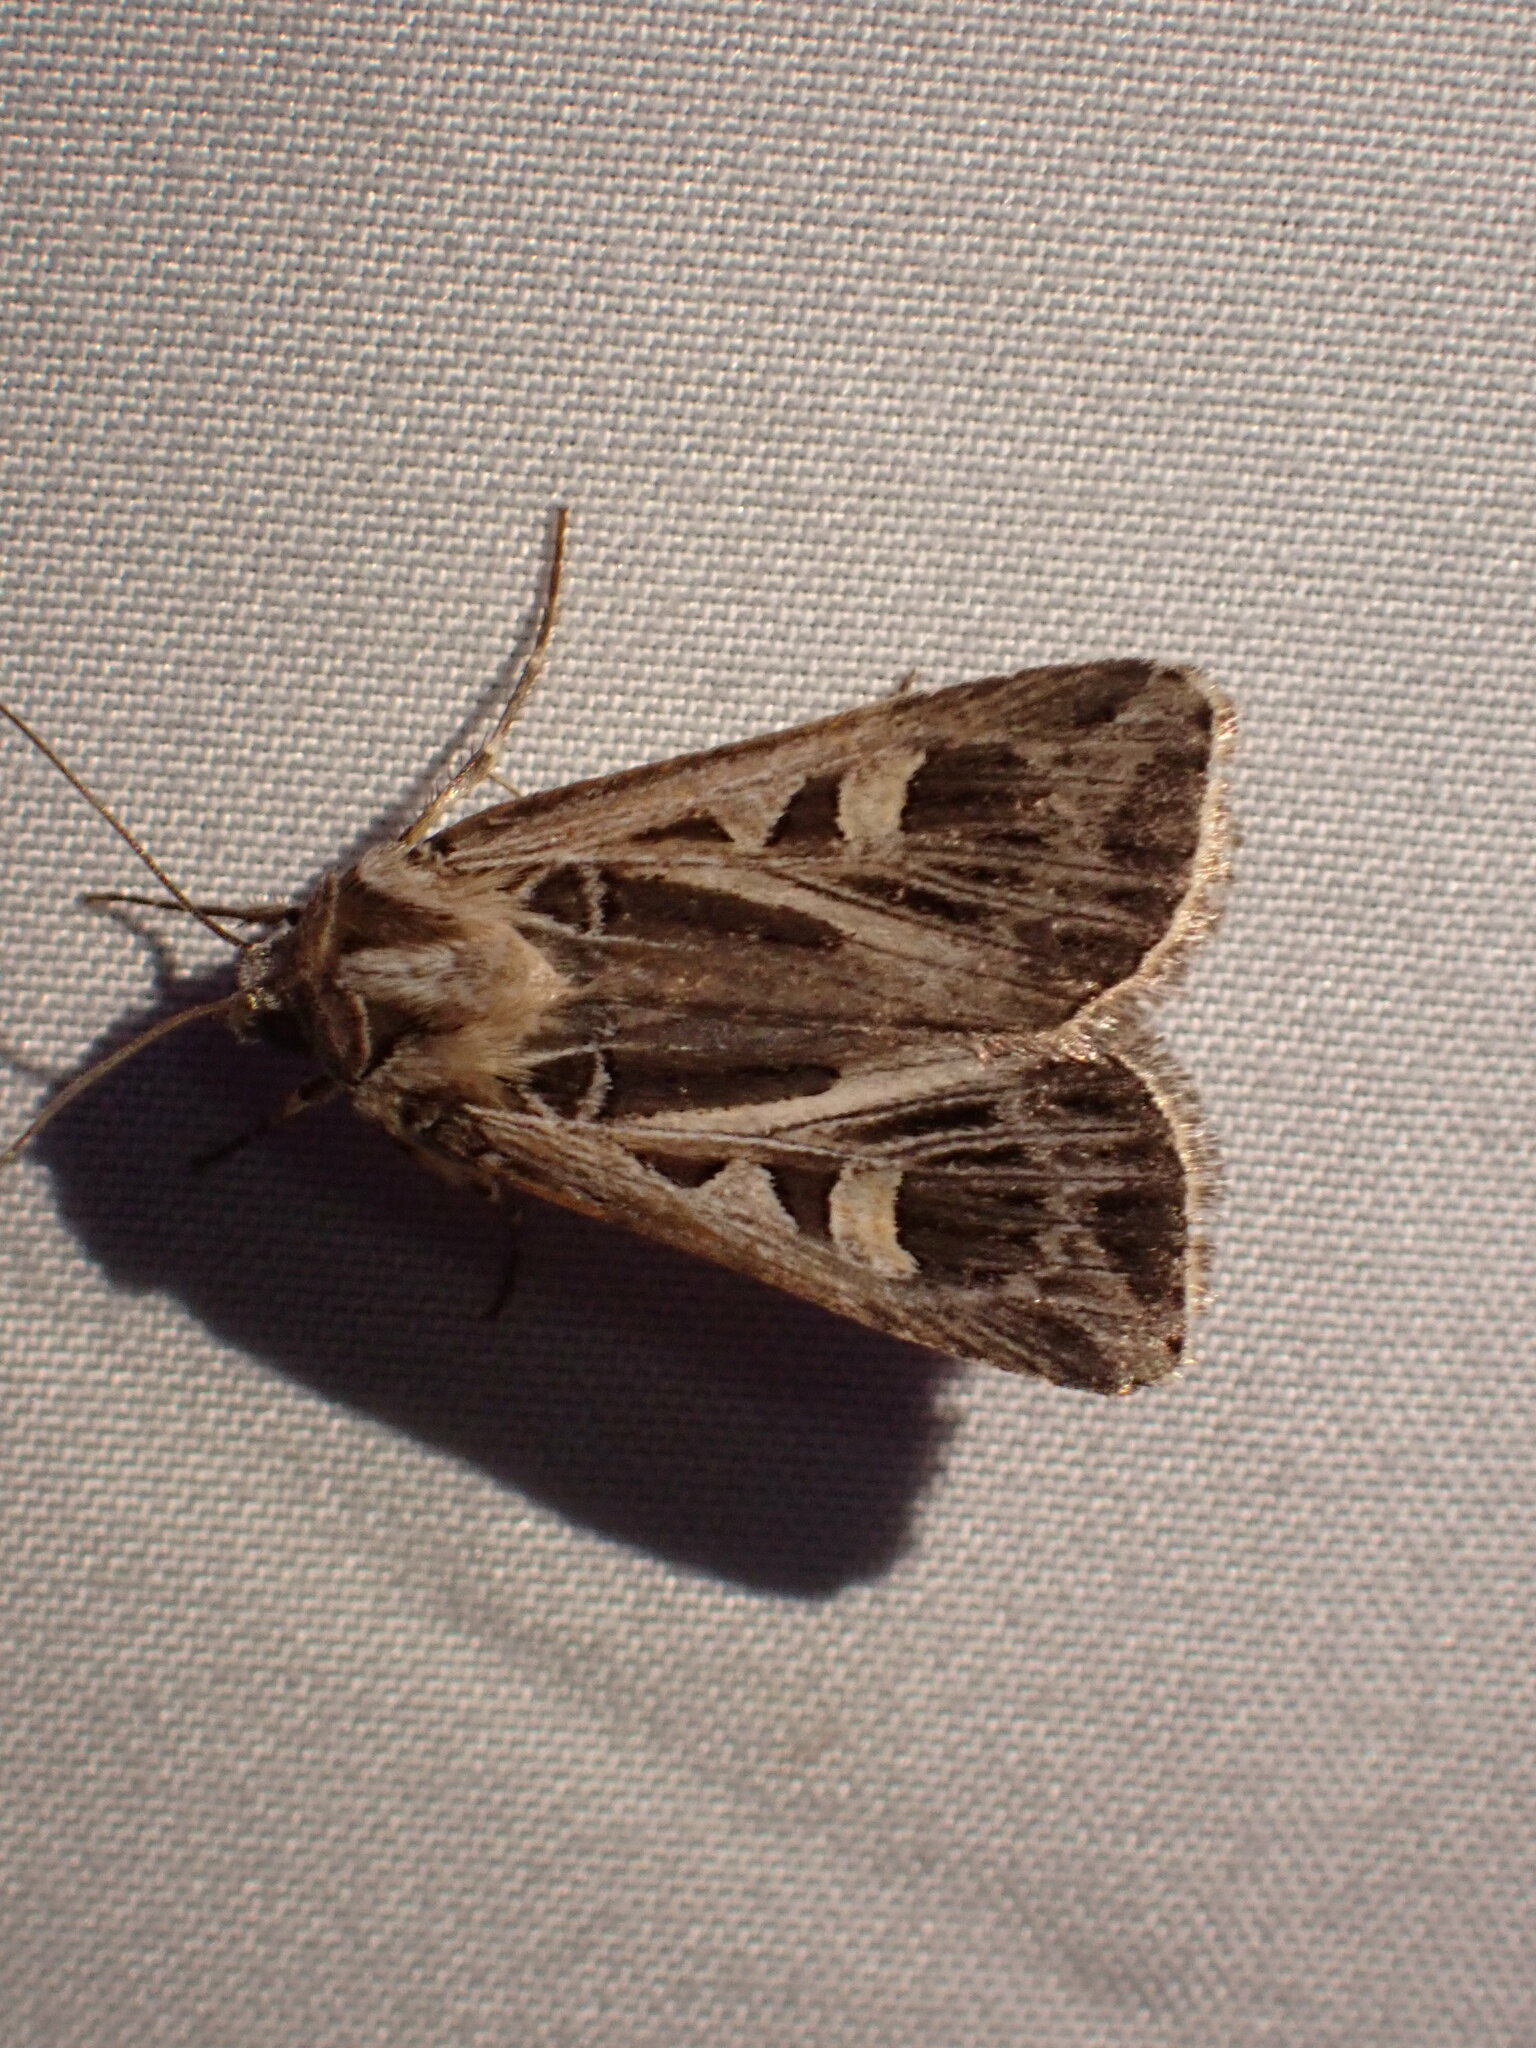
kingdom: Animalia
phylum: Arthropoda
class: Insecta
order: Lepidoptera
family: Noctuidae
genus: Feltia
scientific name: Feltia jaculifera
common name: Dingy cutworm moth
